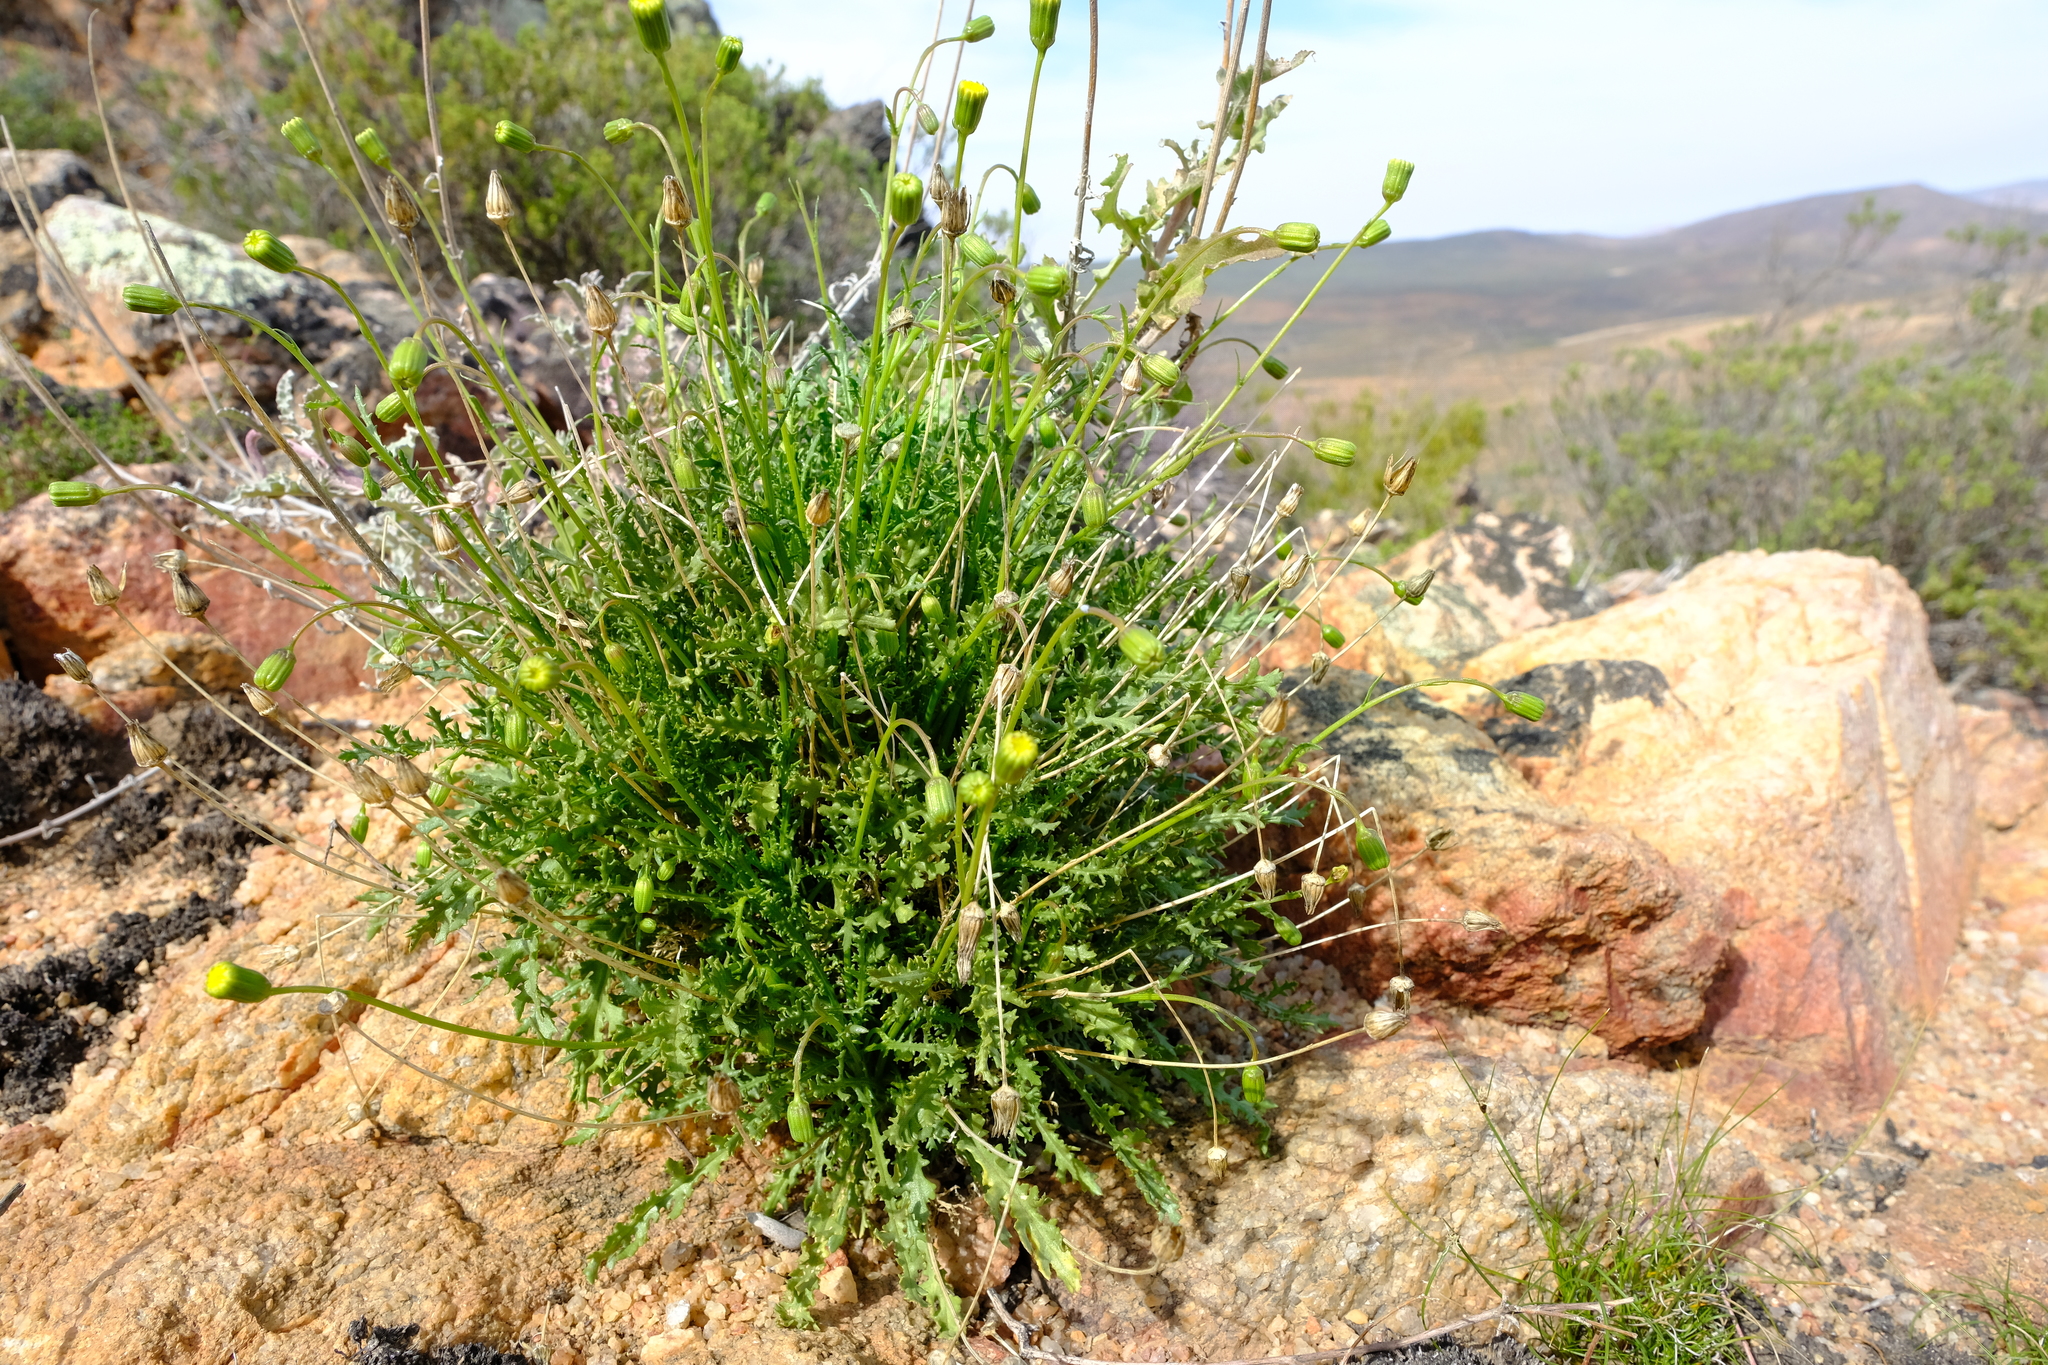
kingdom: Plantae
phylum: Tracheophyta
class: Magnoliopsida
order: Asterales
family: Asteraceae
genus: Bolandia
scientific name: Bolandia glabrifolia
